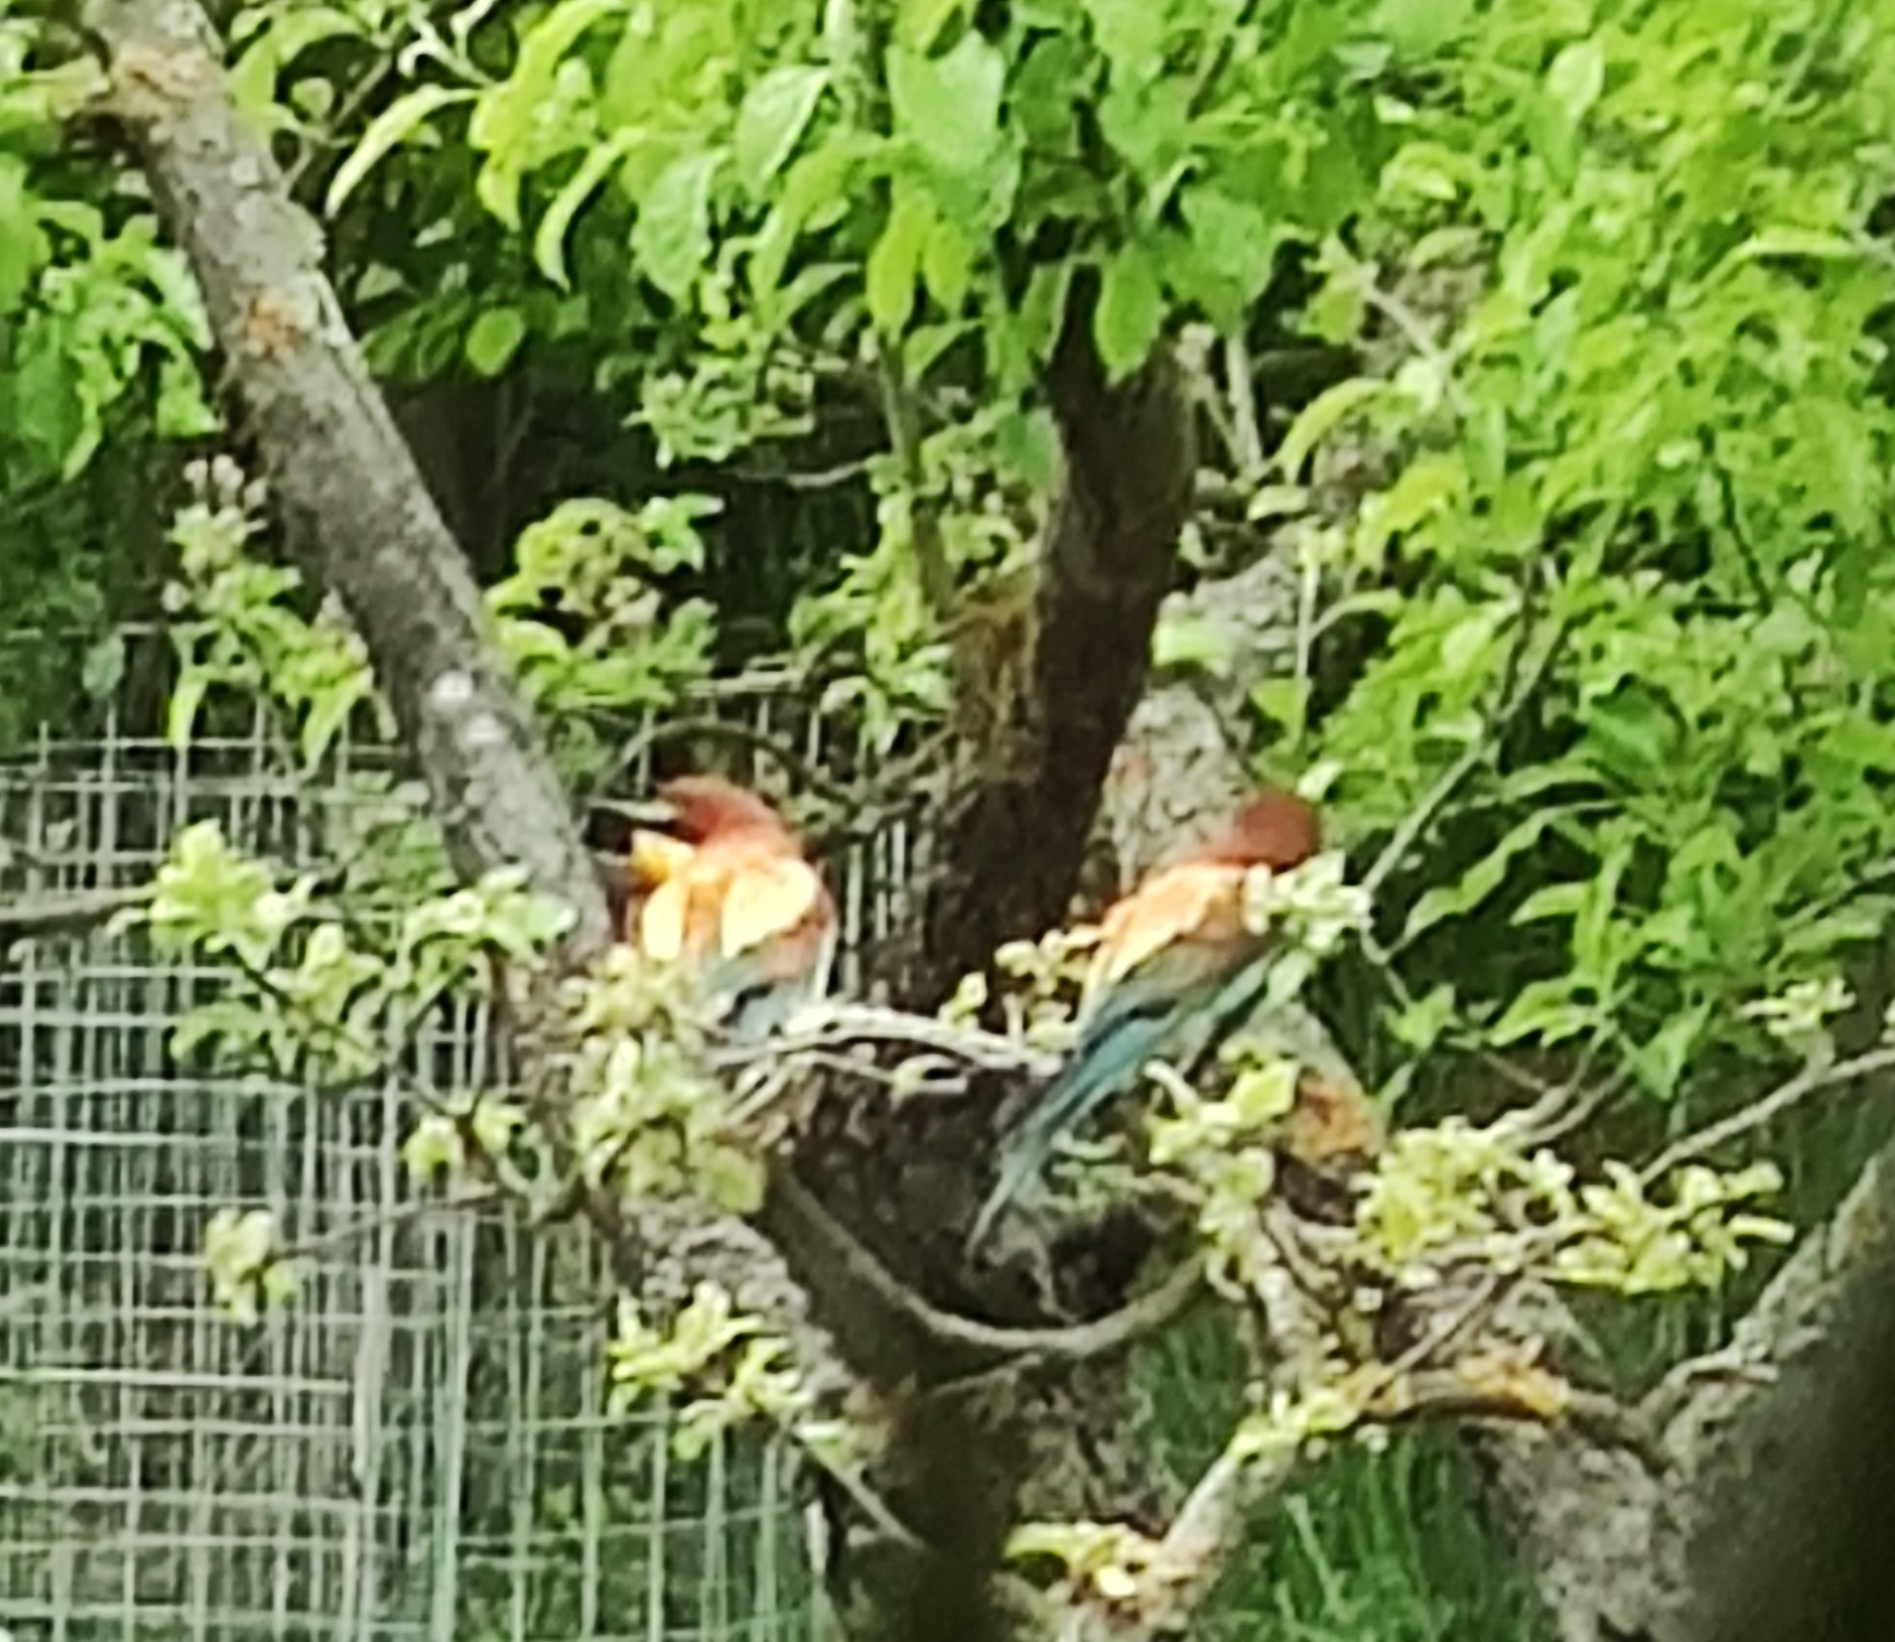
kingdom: Animalia
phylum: Chordata
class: Aves
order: Coraciiformes
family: Meropidae
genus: Merops
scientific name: Merops apiaster
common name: European bee-eater
